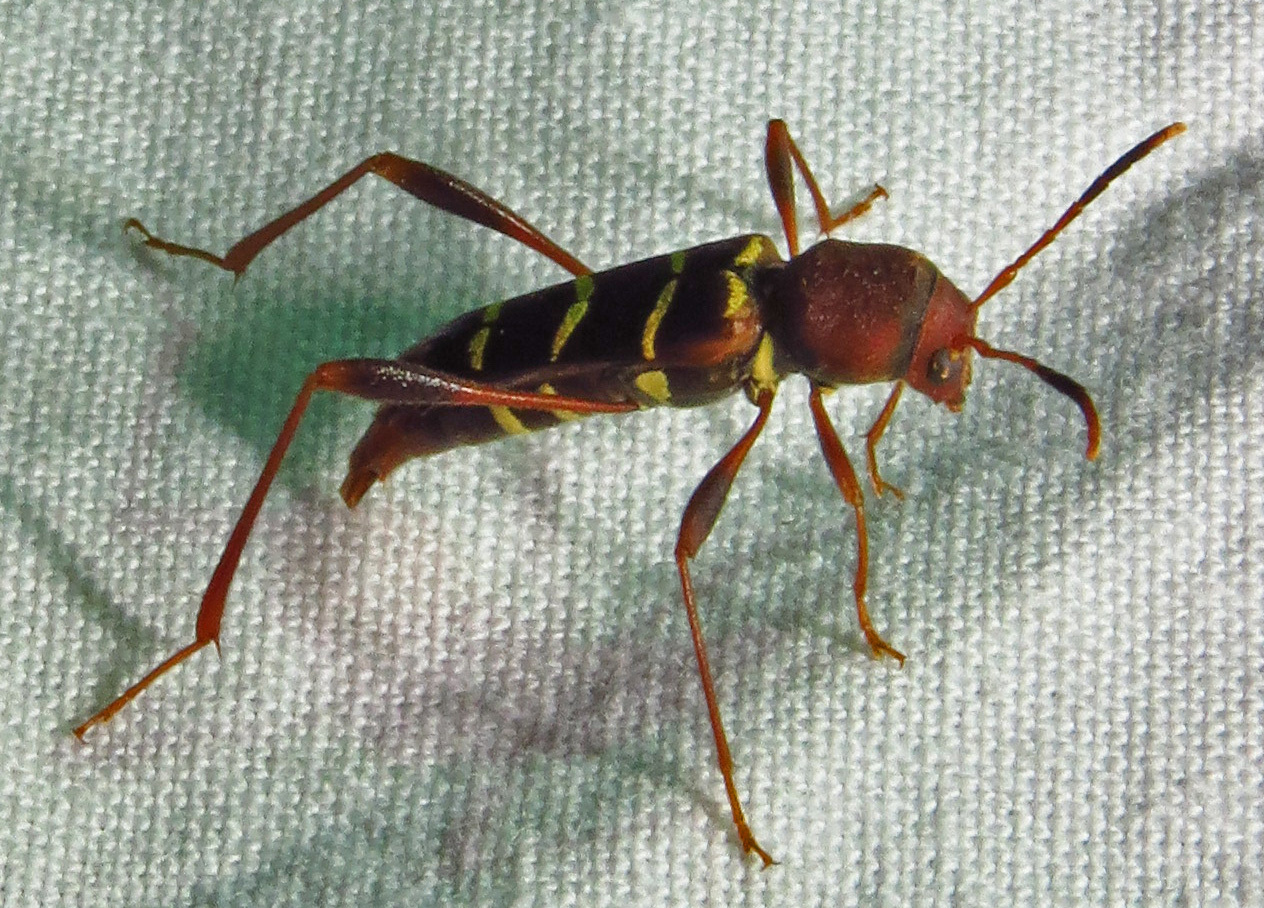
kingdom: Animalia
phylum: Arthropoda
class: Insecta
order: Coleoptera
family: Cerambycidae
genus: Neoclytus
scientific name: Neoclytus acuminatus
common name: Read-headed ash borer
